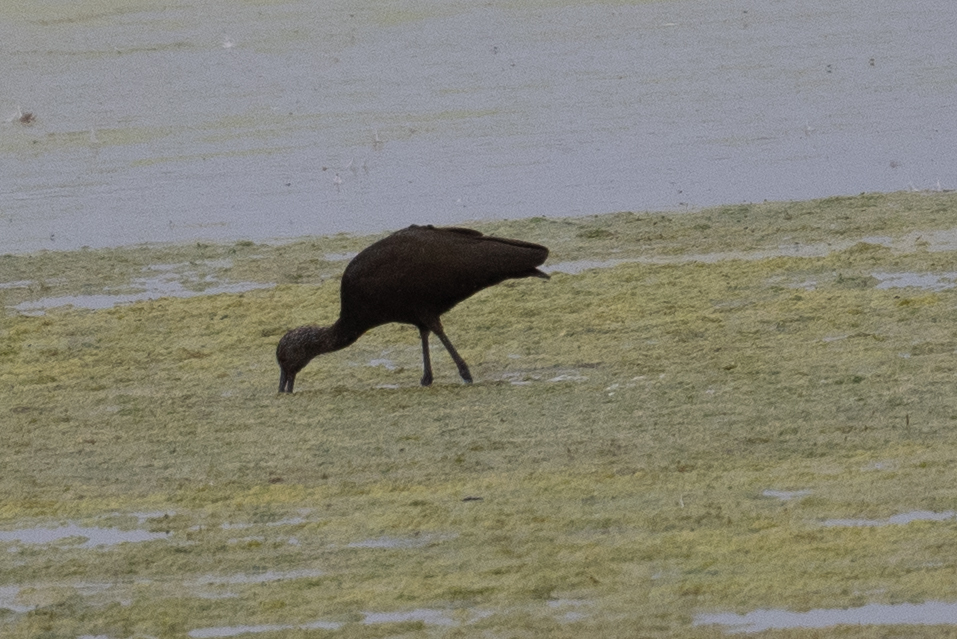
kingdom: Animalia
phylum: Chordata
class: Aves
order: Pelecaniformes
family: Threskiornithidae
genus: Plegadis
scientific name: Plegadis chihi
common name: White-faced ibis
